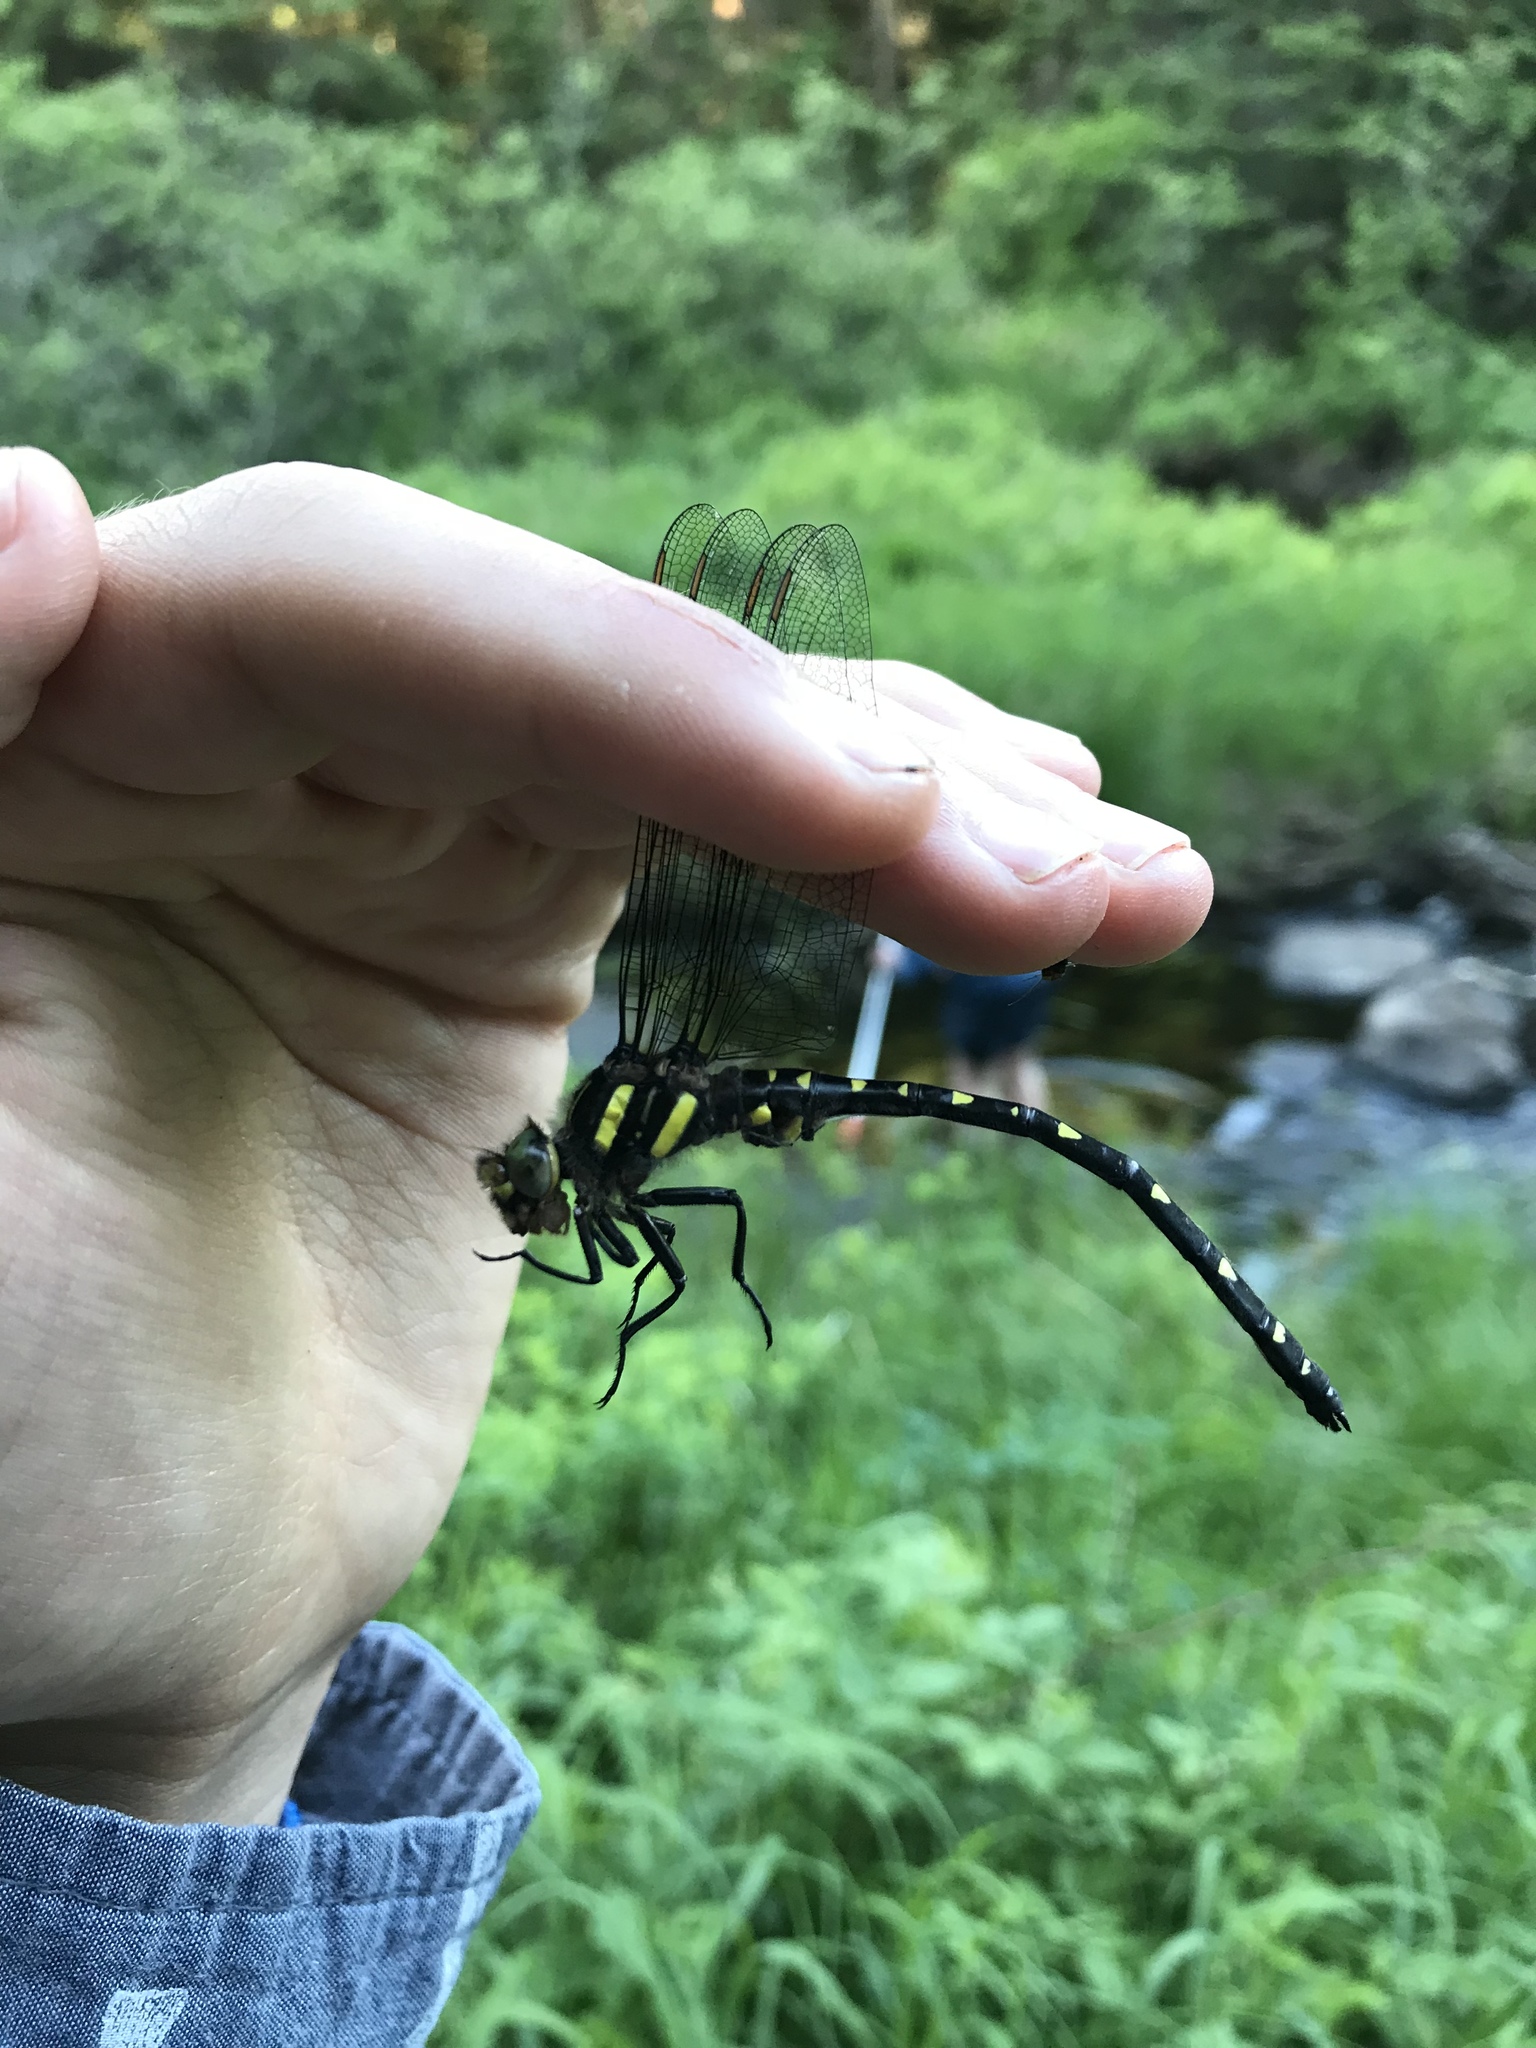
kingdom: Animalia
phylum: Arthropoda
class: Insecta
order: Odonata
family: Cordulegastridae
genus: Cordulegaster
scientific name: Cordulegaster maculata
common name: Twin-spotted spiketail
